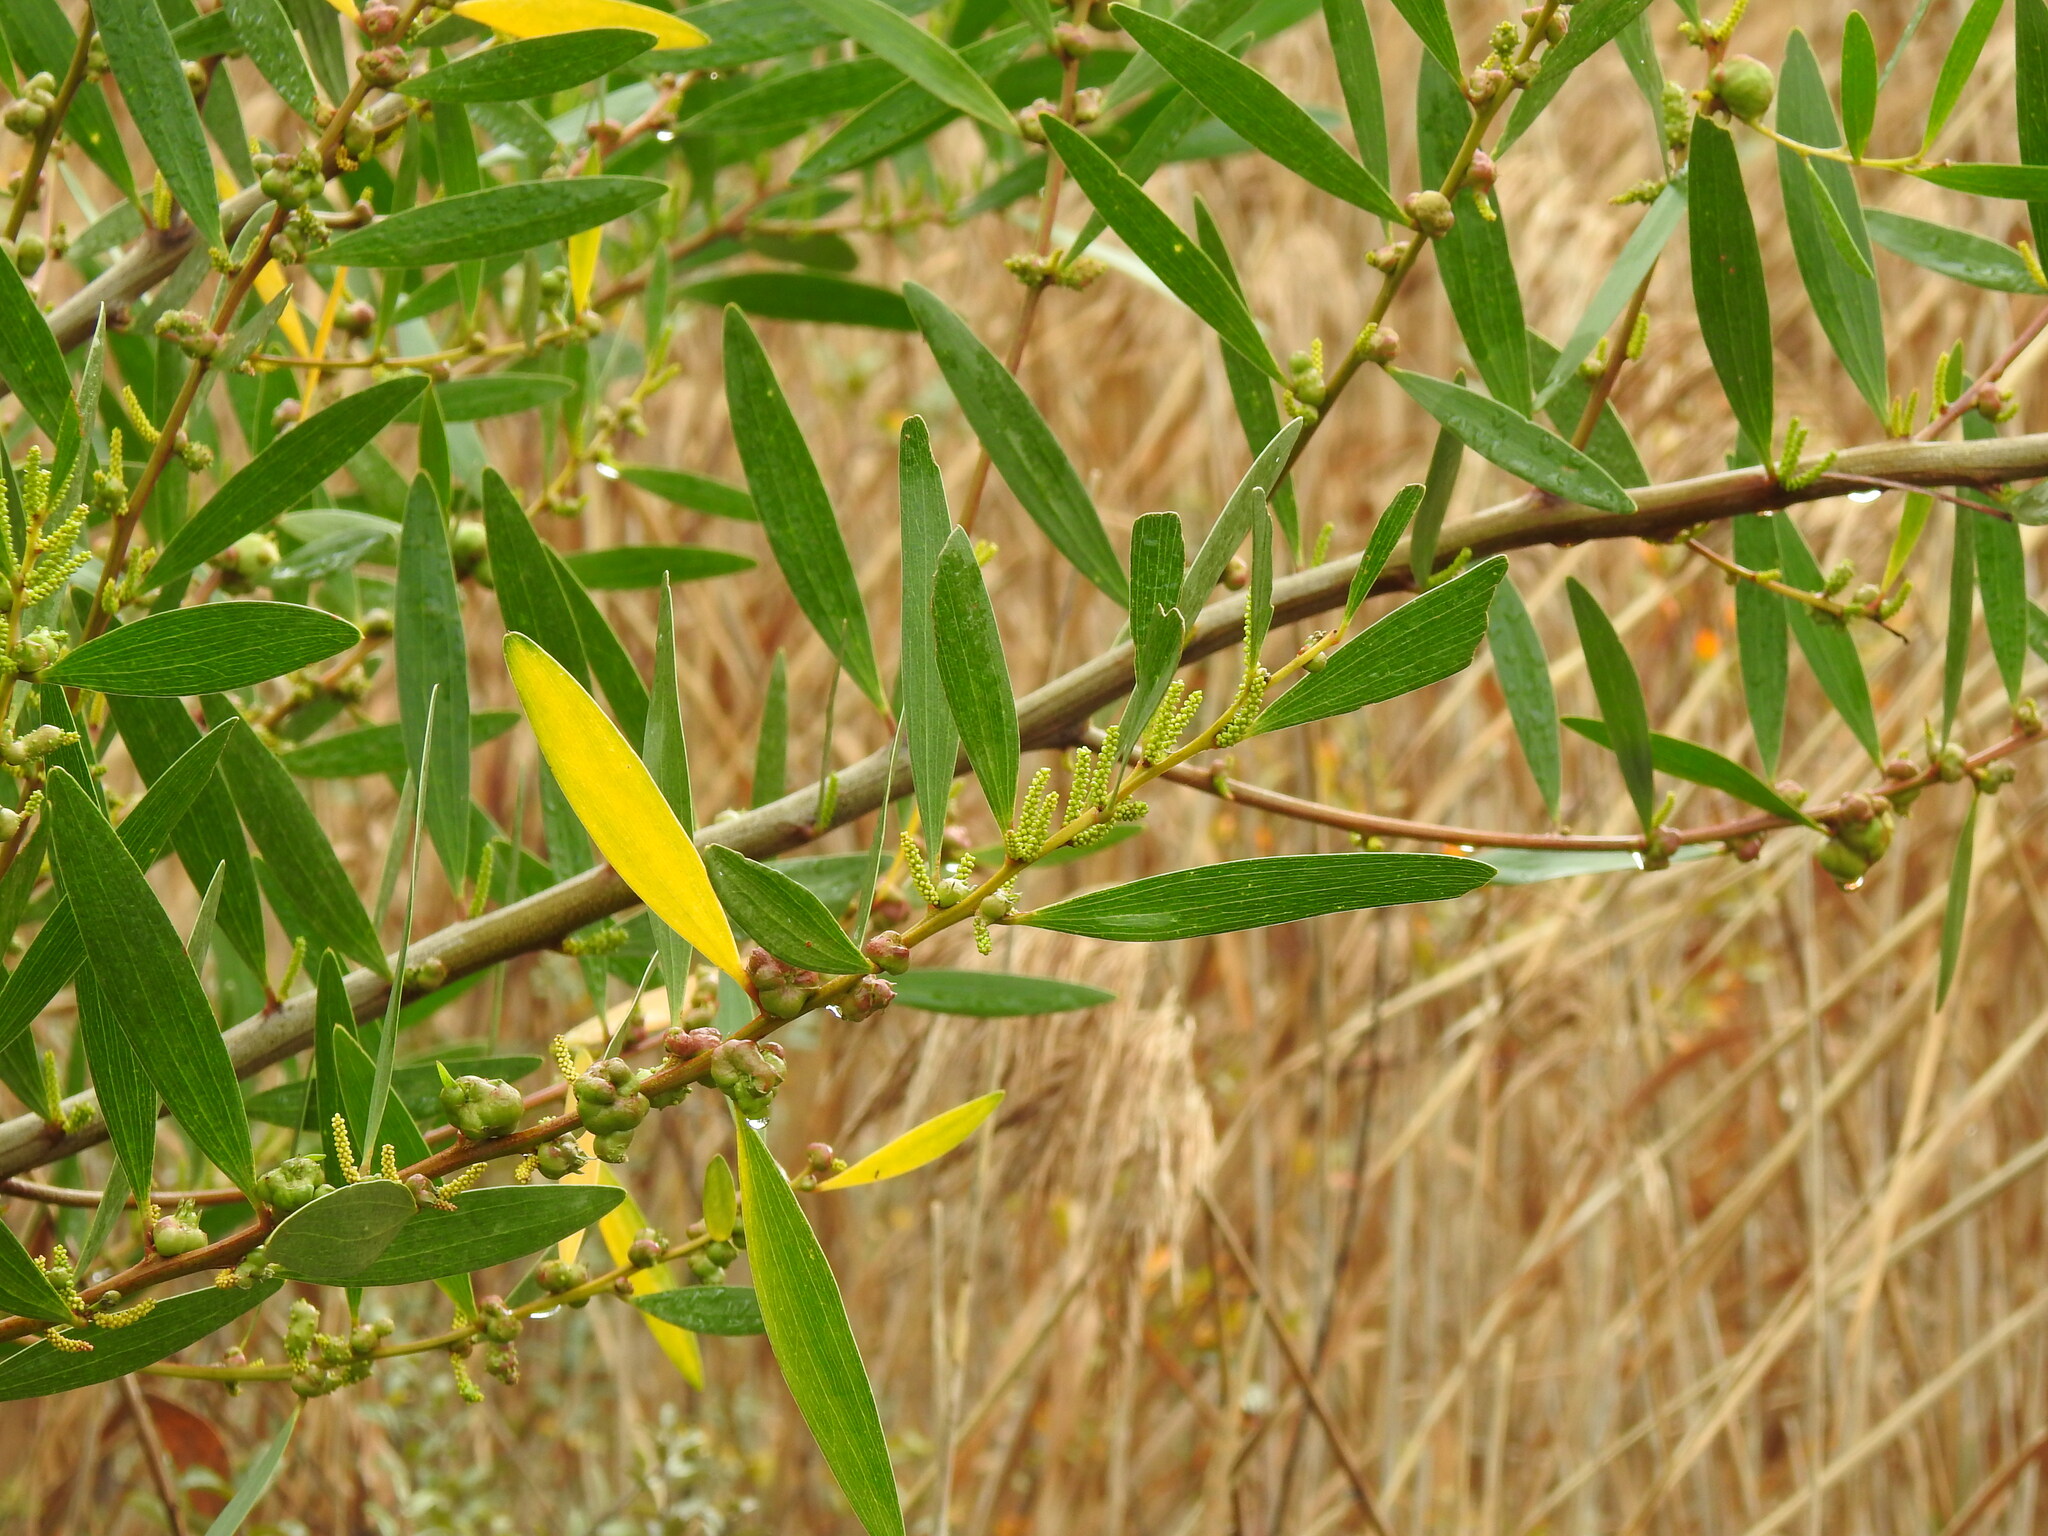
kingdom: Plantae
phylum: Tracheophyta
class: Magnoliopsida
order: Fabales
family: Fabaceae
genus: Acacia
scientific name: Acacia longifolia
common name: Sydney golden wattle
